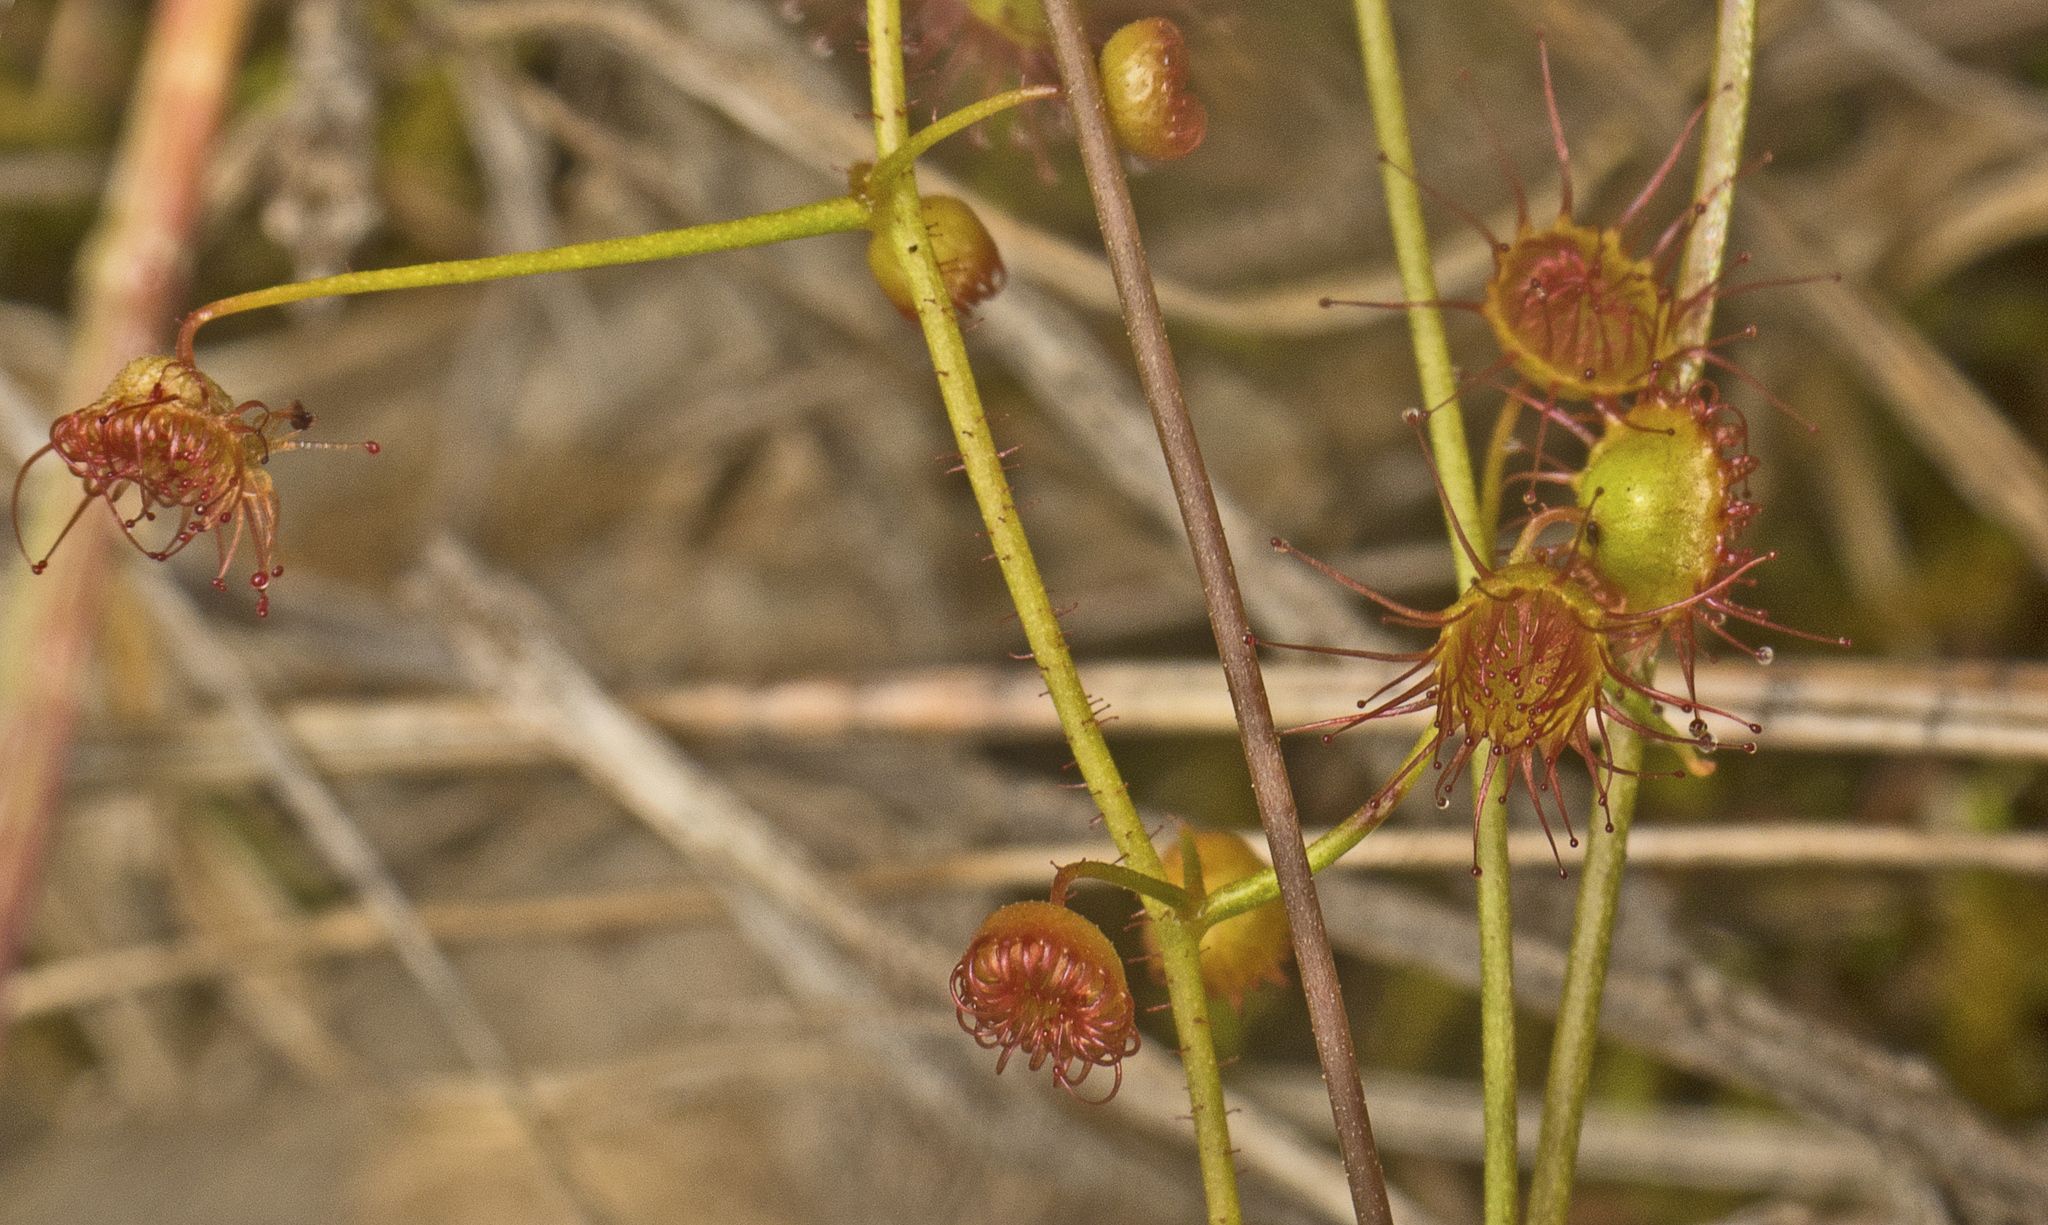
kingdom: Plantae
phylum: Tracheophyta
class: Magnoliopsida
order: Caryophyllales
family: Droseraceae
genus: Drosera
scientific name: Drosera macrantha
